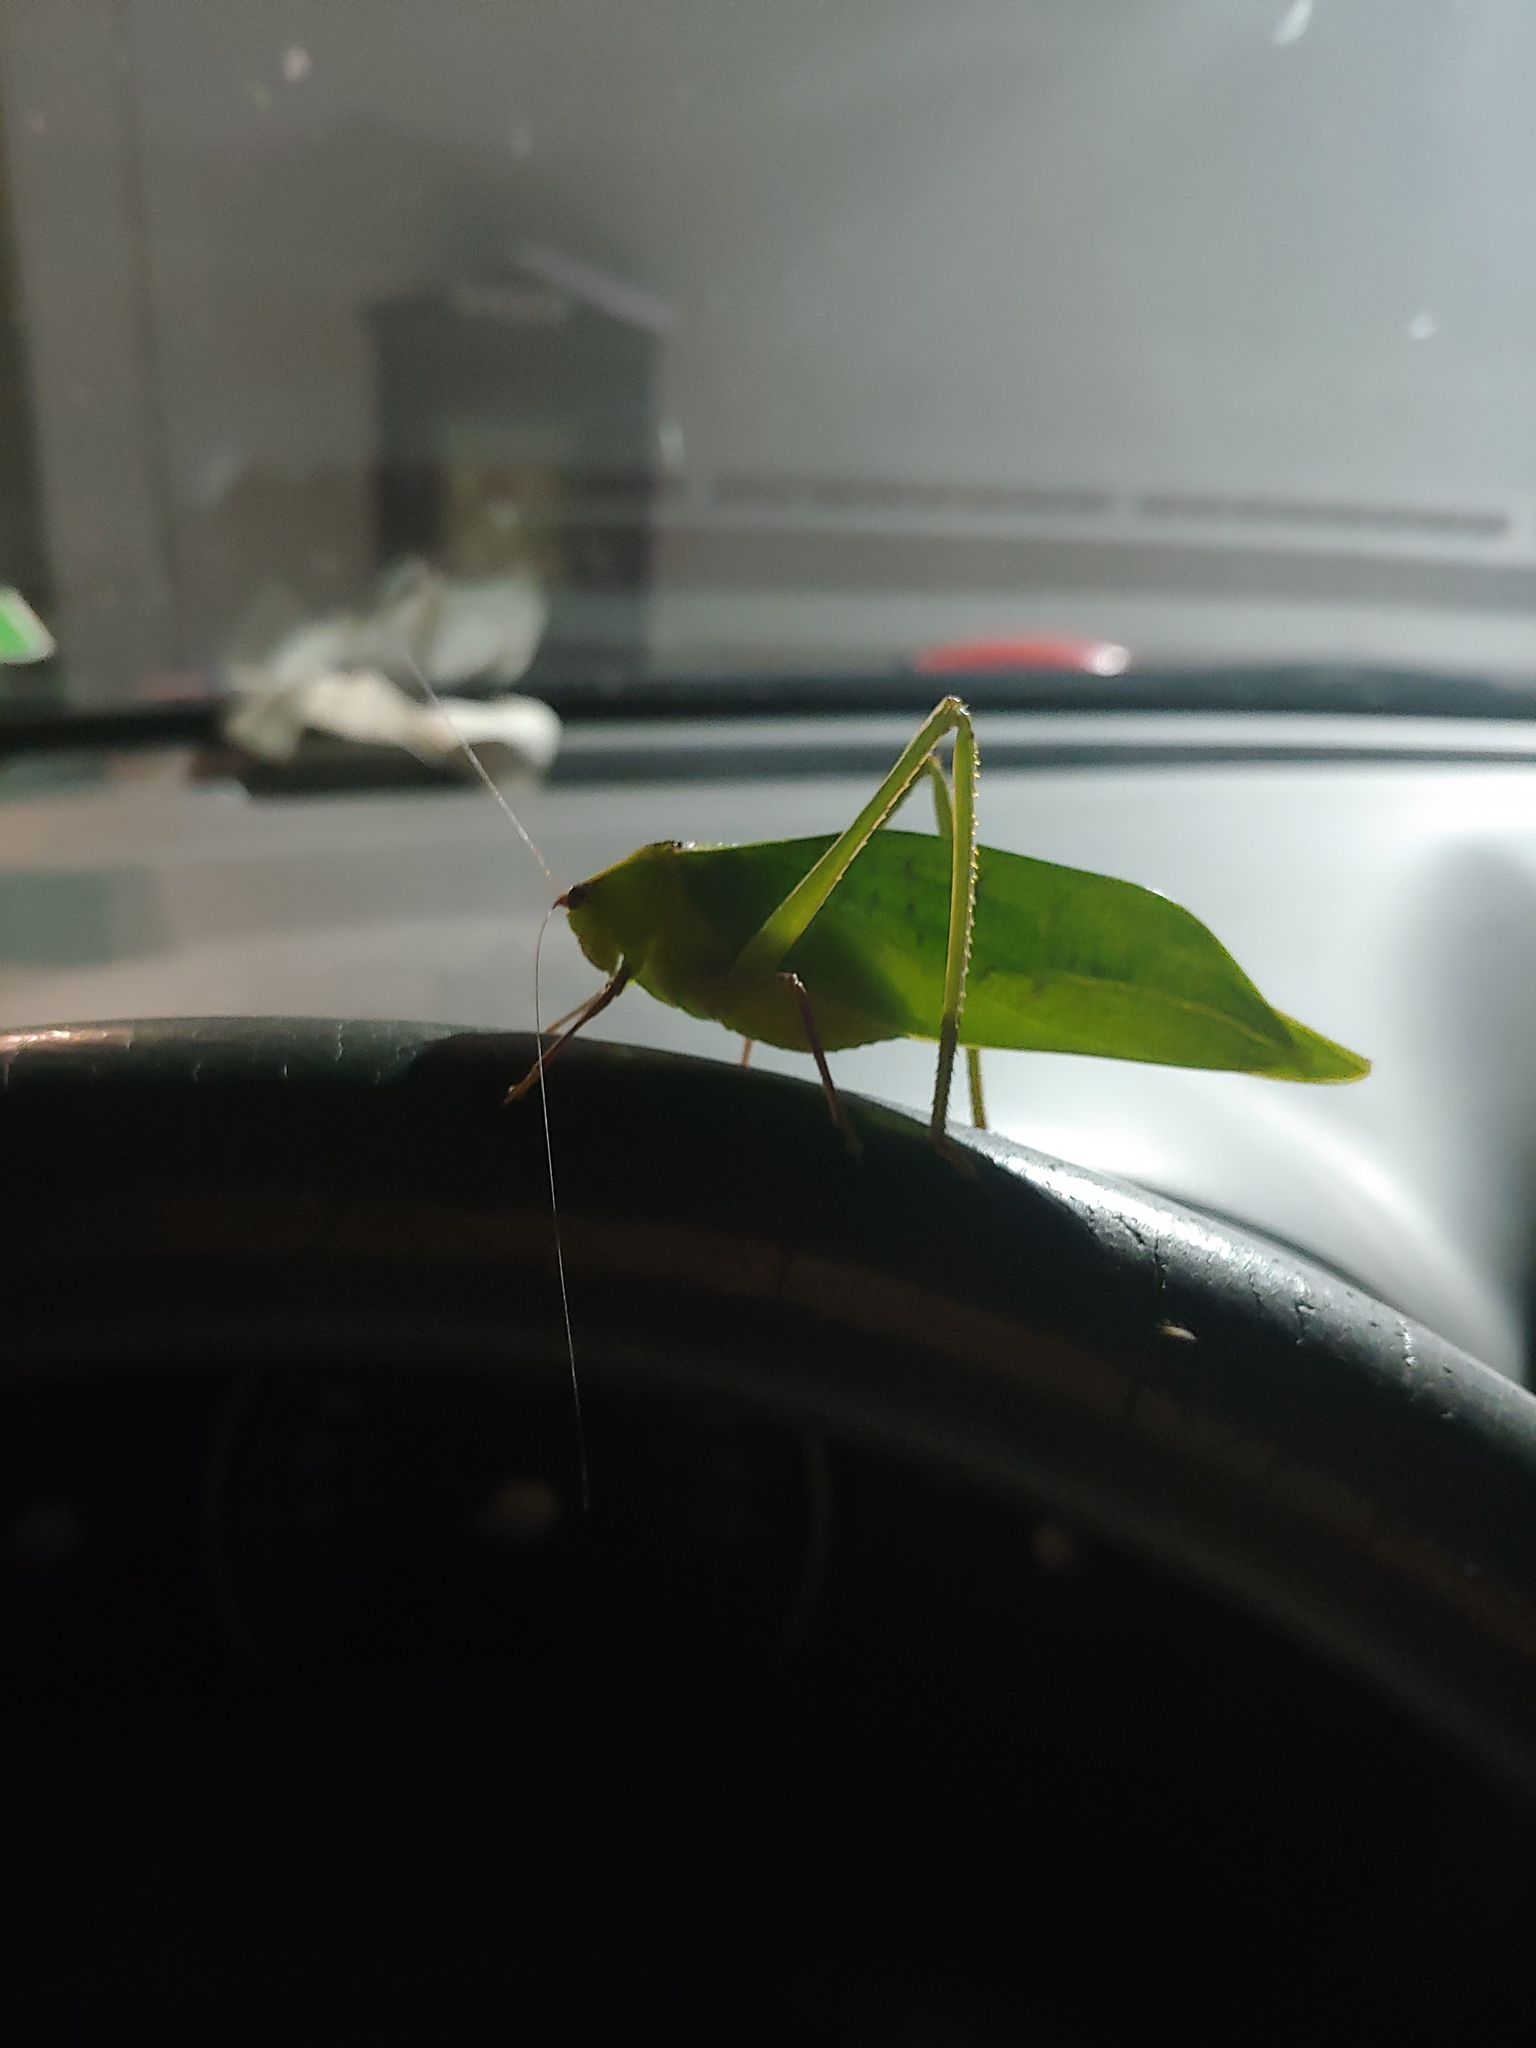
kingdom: Animalia
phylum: Arthropoda
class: Insecta
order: Orthoptera
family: Tettigoniidae
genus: Stilpnochlora
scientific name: Stilpnochlora couloniana
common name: Giant katydid
